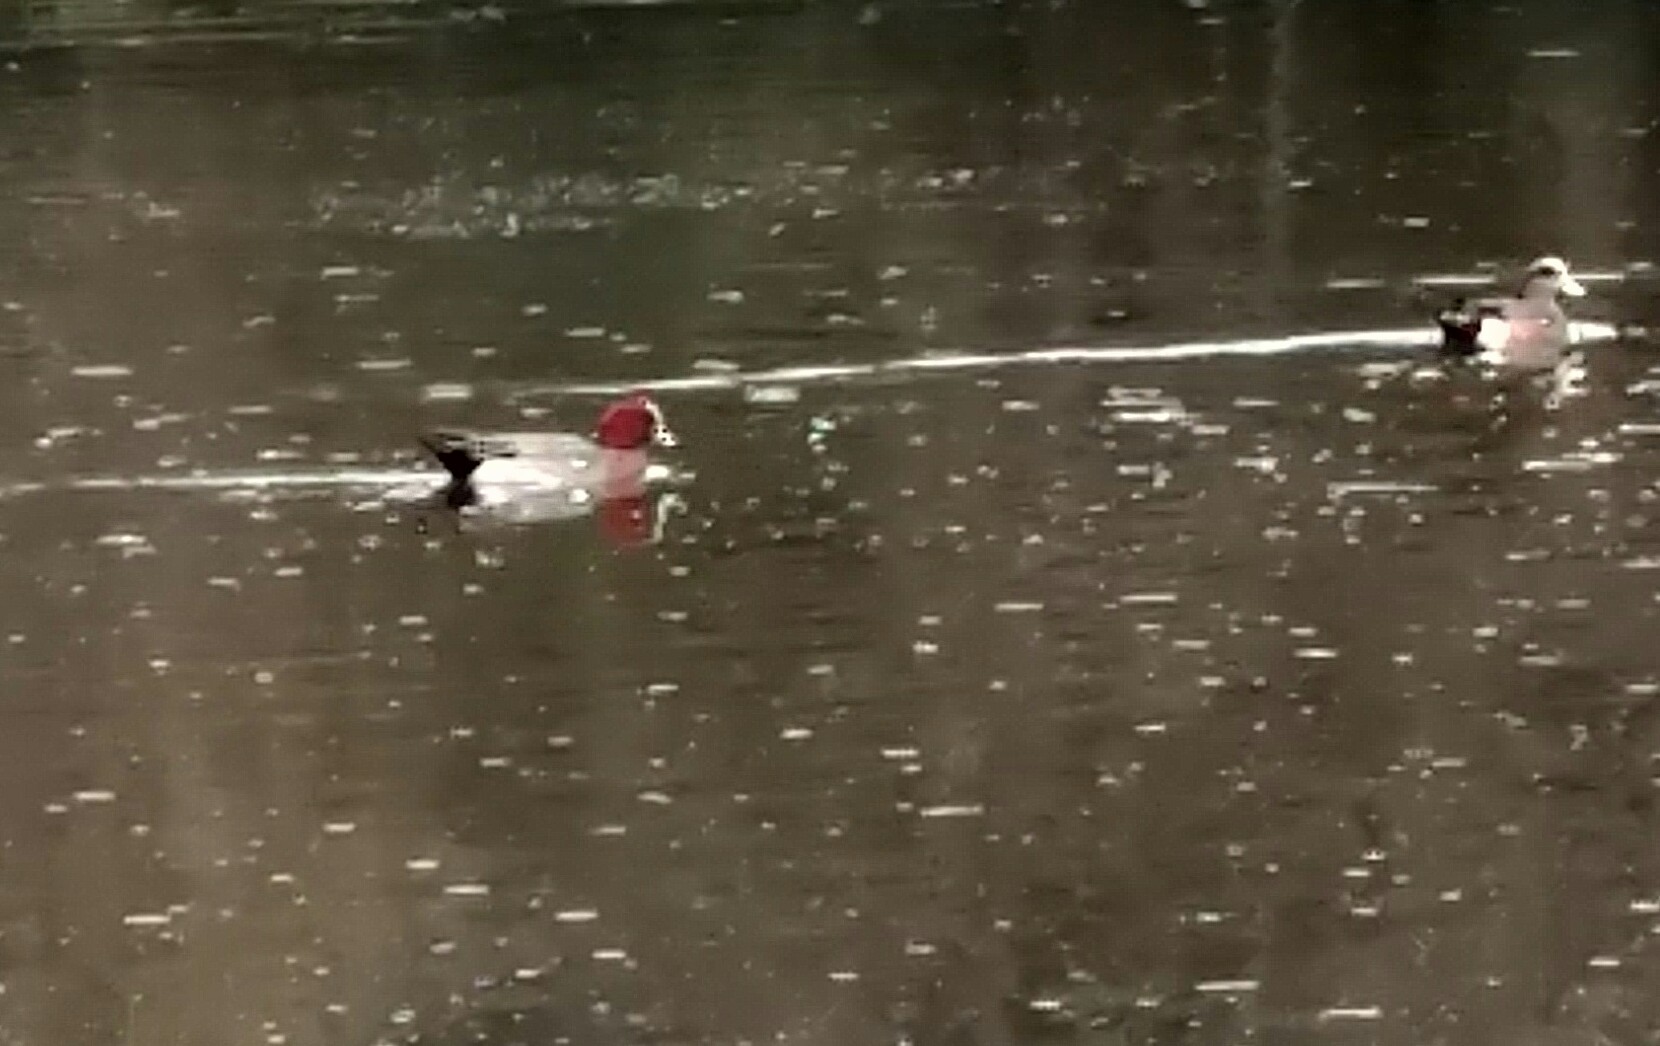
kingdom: Animalia
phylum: Chordata
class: Aves
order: Anseriformes
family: Anatidae
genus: Mareca
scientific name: Mareca penelope
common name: Eurasian wigeon
